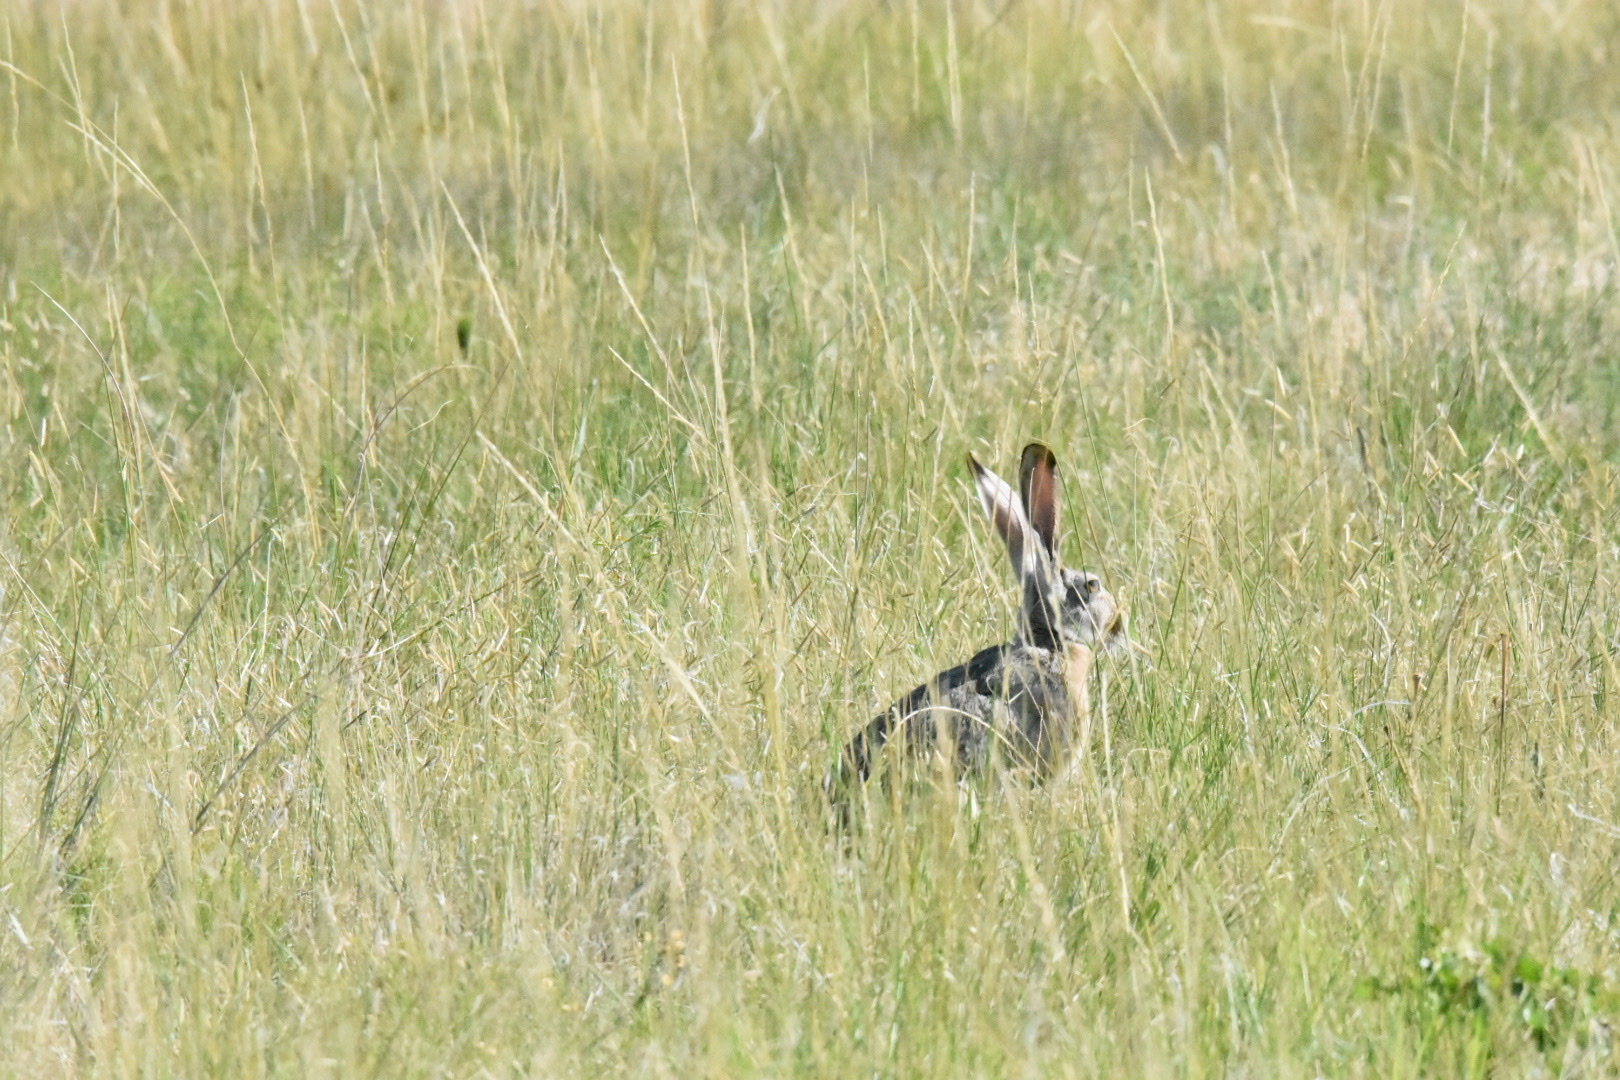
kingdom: Animalia
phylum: Chordata
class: Mammalia
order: Lagomorpha
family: Leporidae
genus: Lepus
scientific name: Lepus californicus
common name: Black-tailed jackrabbit
